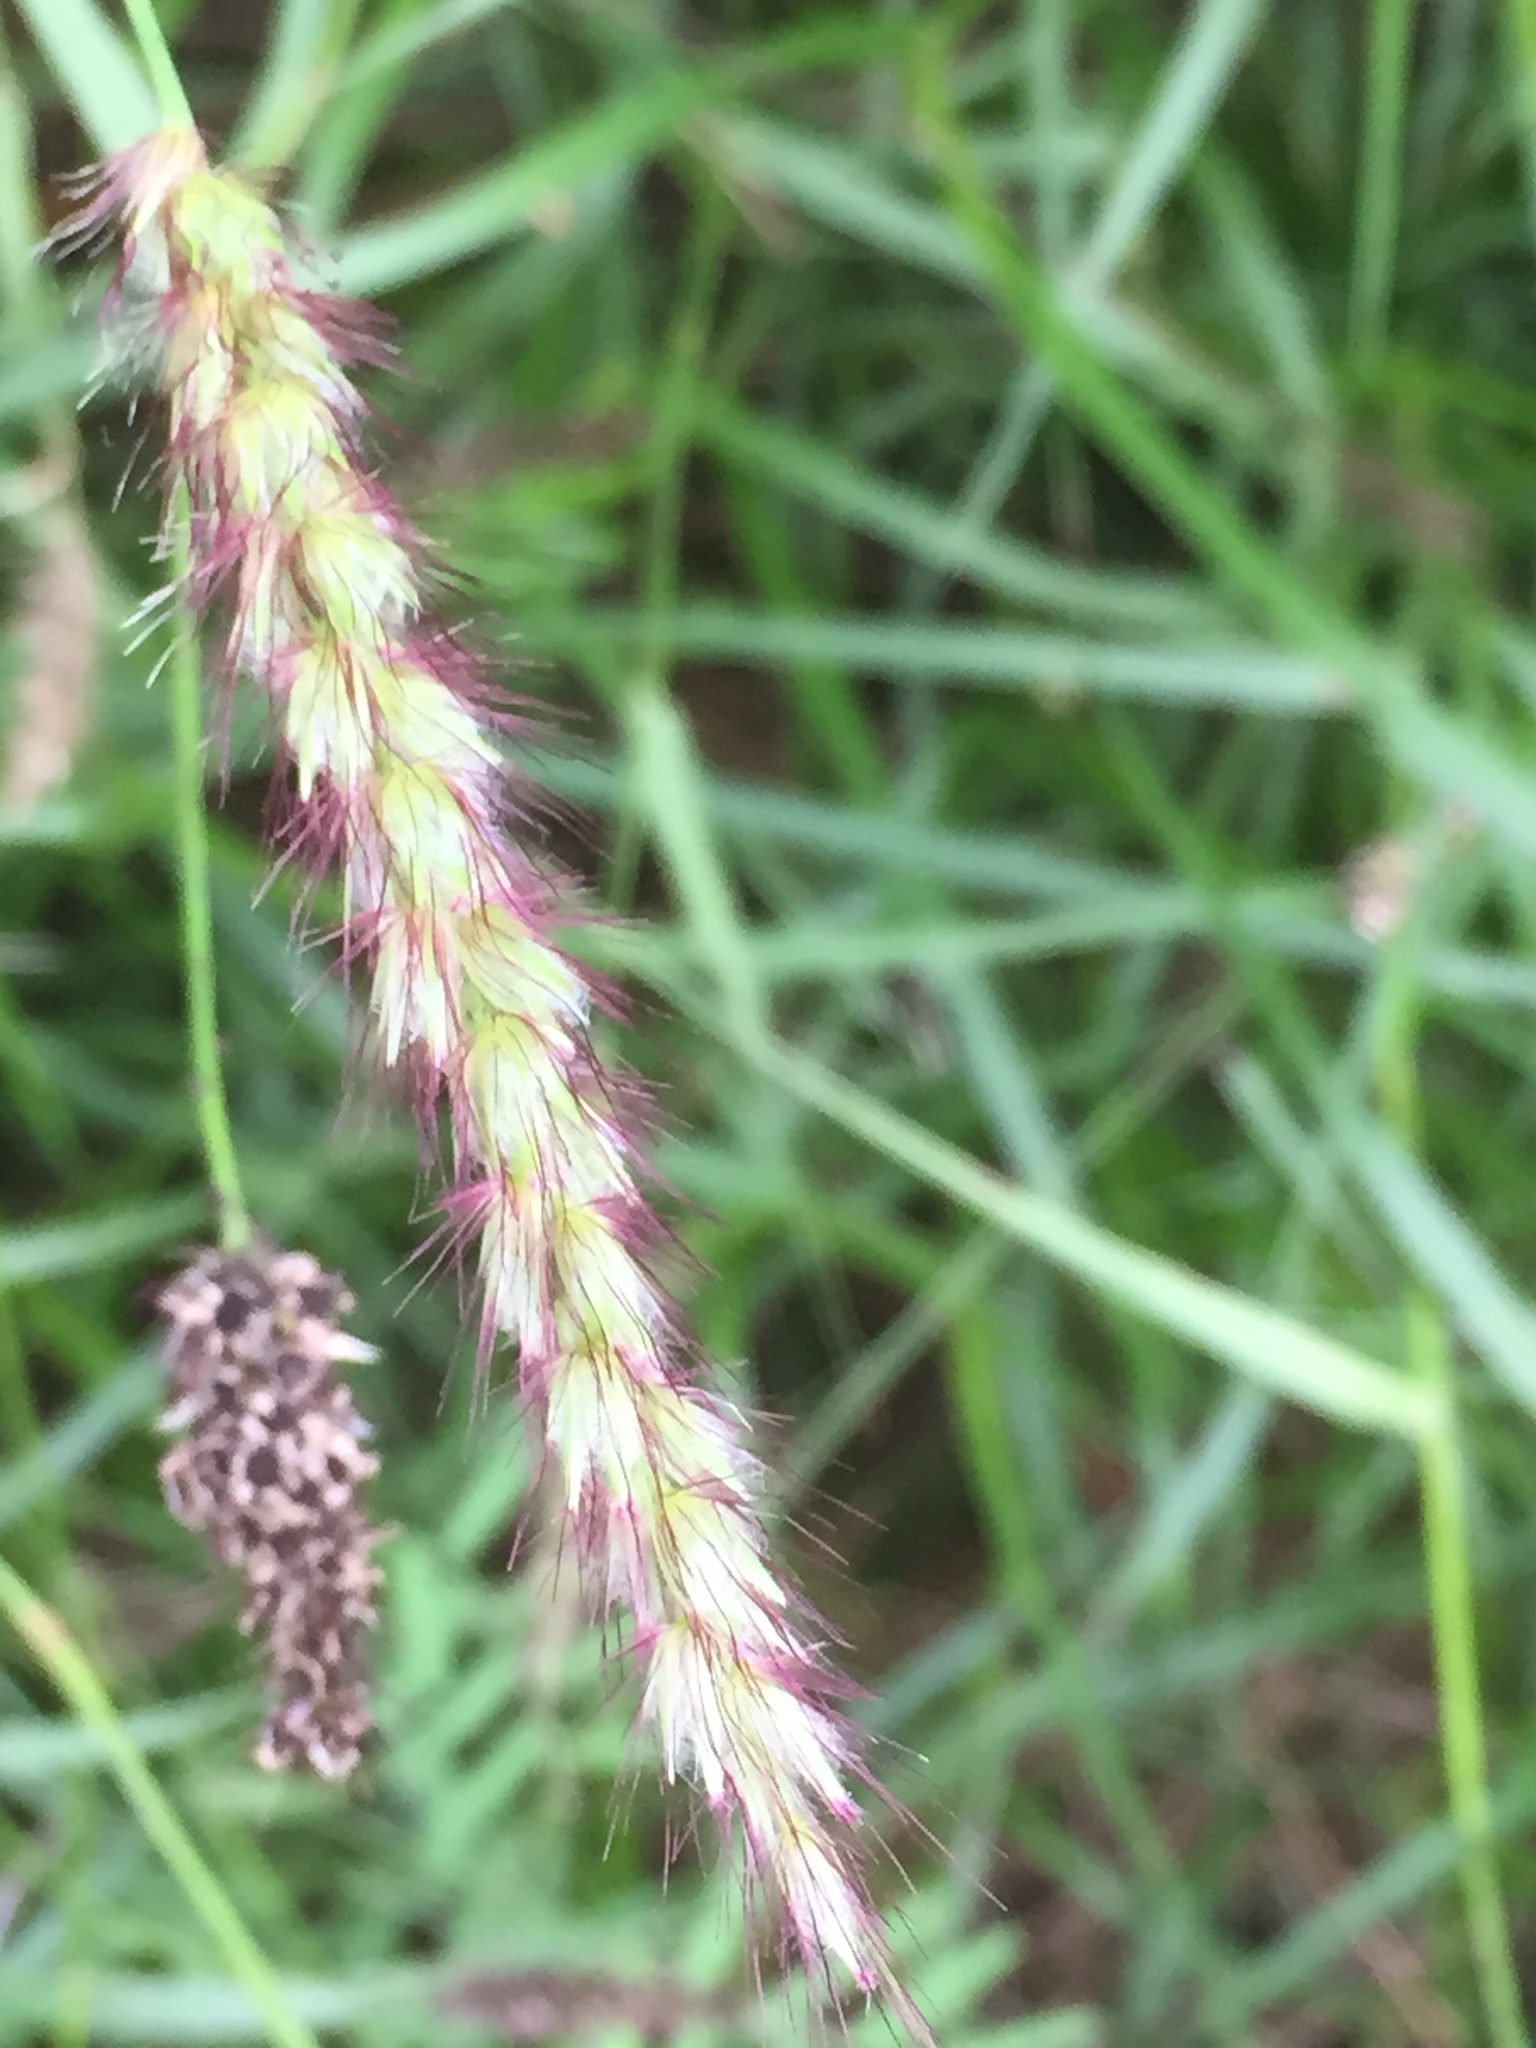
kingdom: Plantae
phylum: Tracheophyta
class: Liliopsida
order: Poales
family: Poaceae
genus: Cenchrus
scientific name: Cenchrus ciliaris
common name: Buffelgrass
